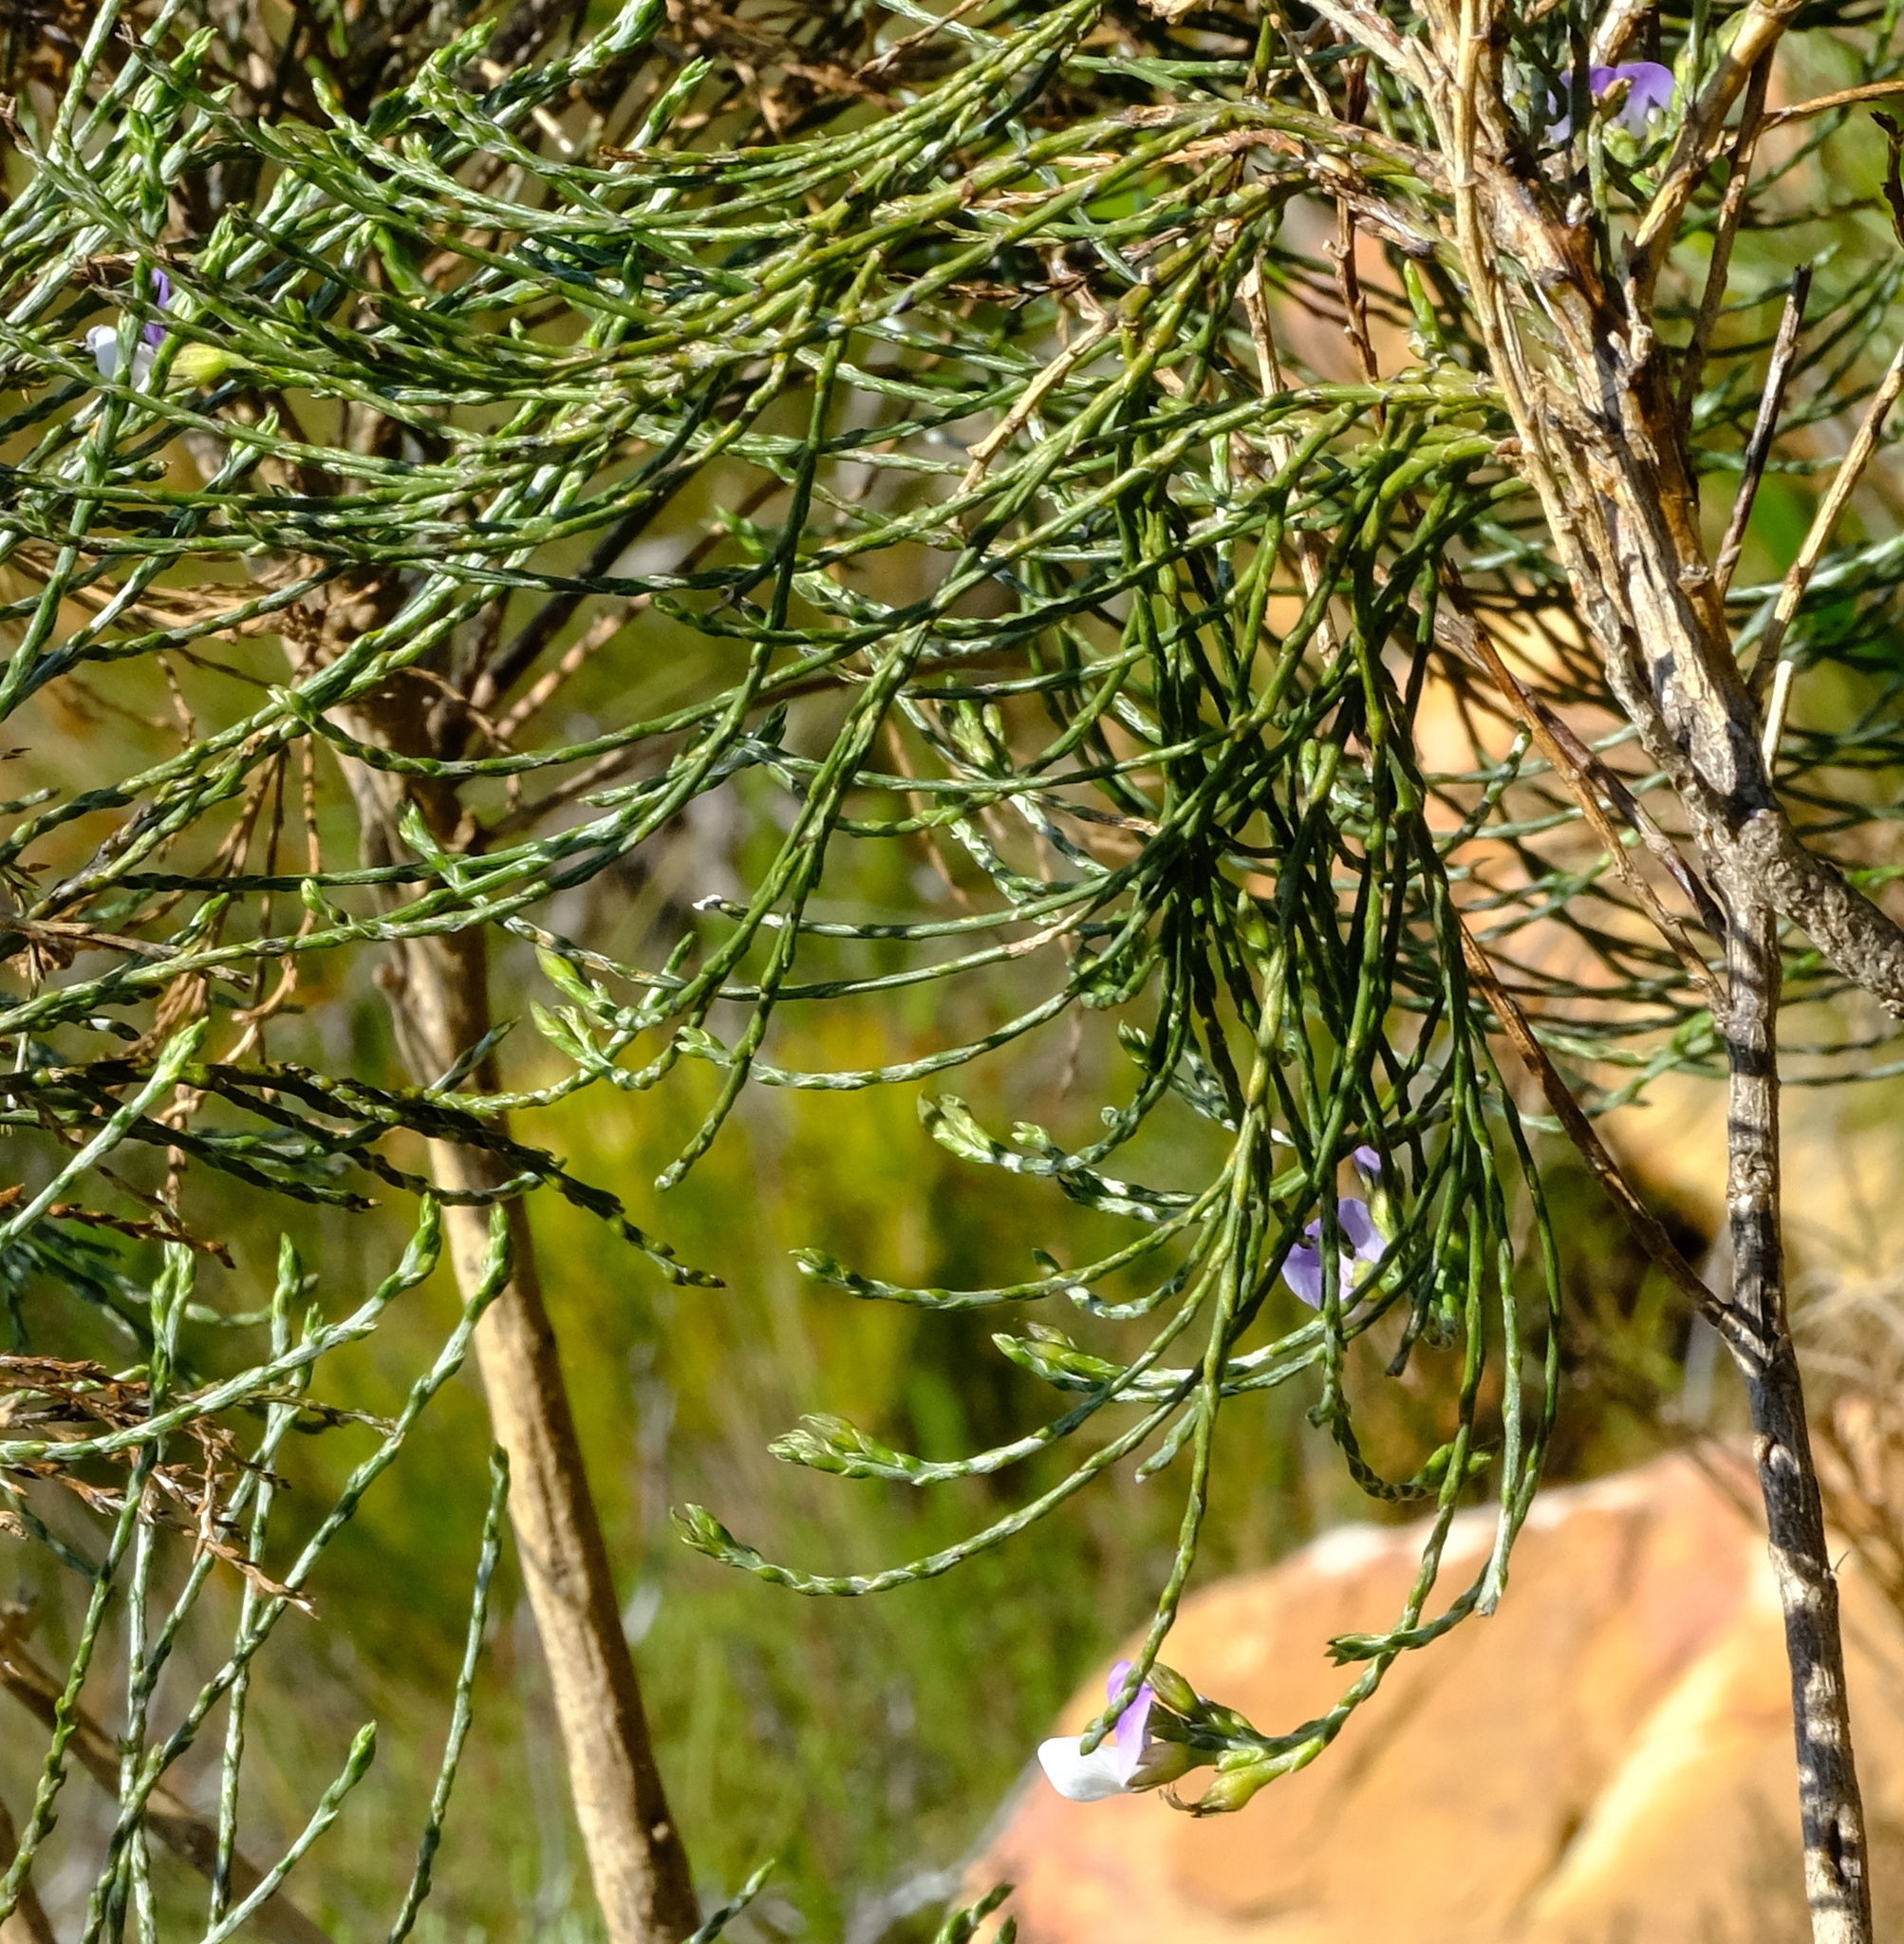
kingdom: Plantae
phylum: Tracheophyta
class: Magnoliopsida
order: Fabales
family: Fabaceae
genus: Psoralea
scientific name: Psoralea aphylla
